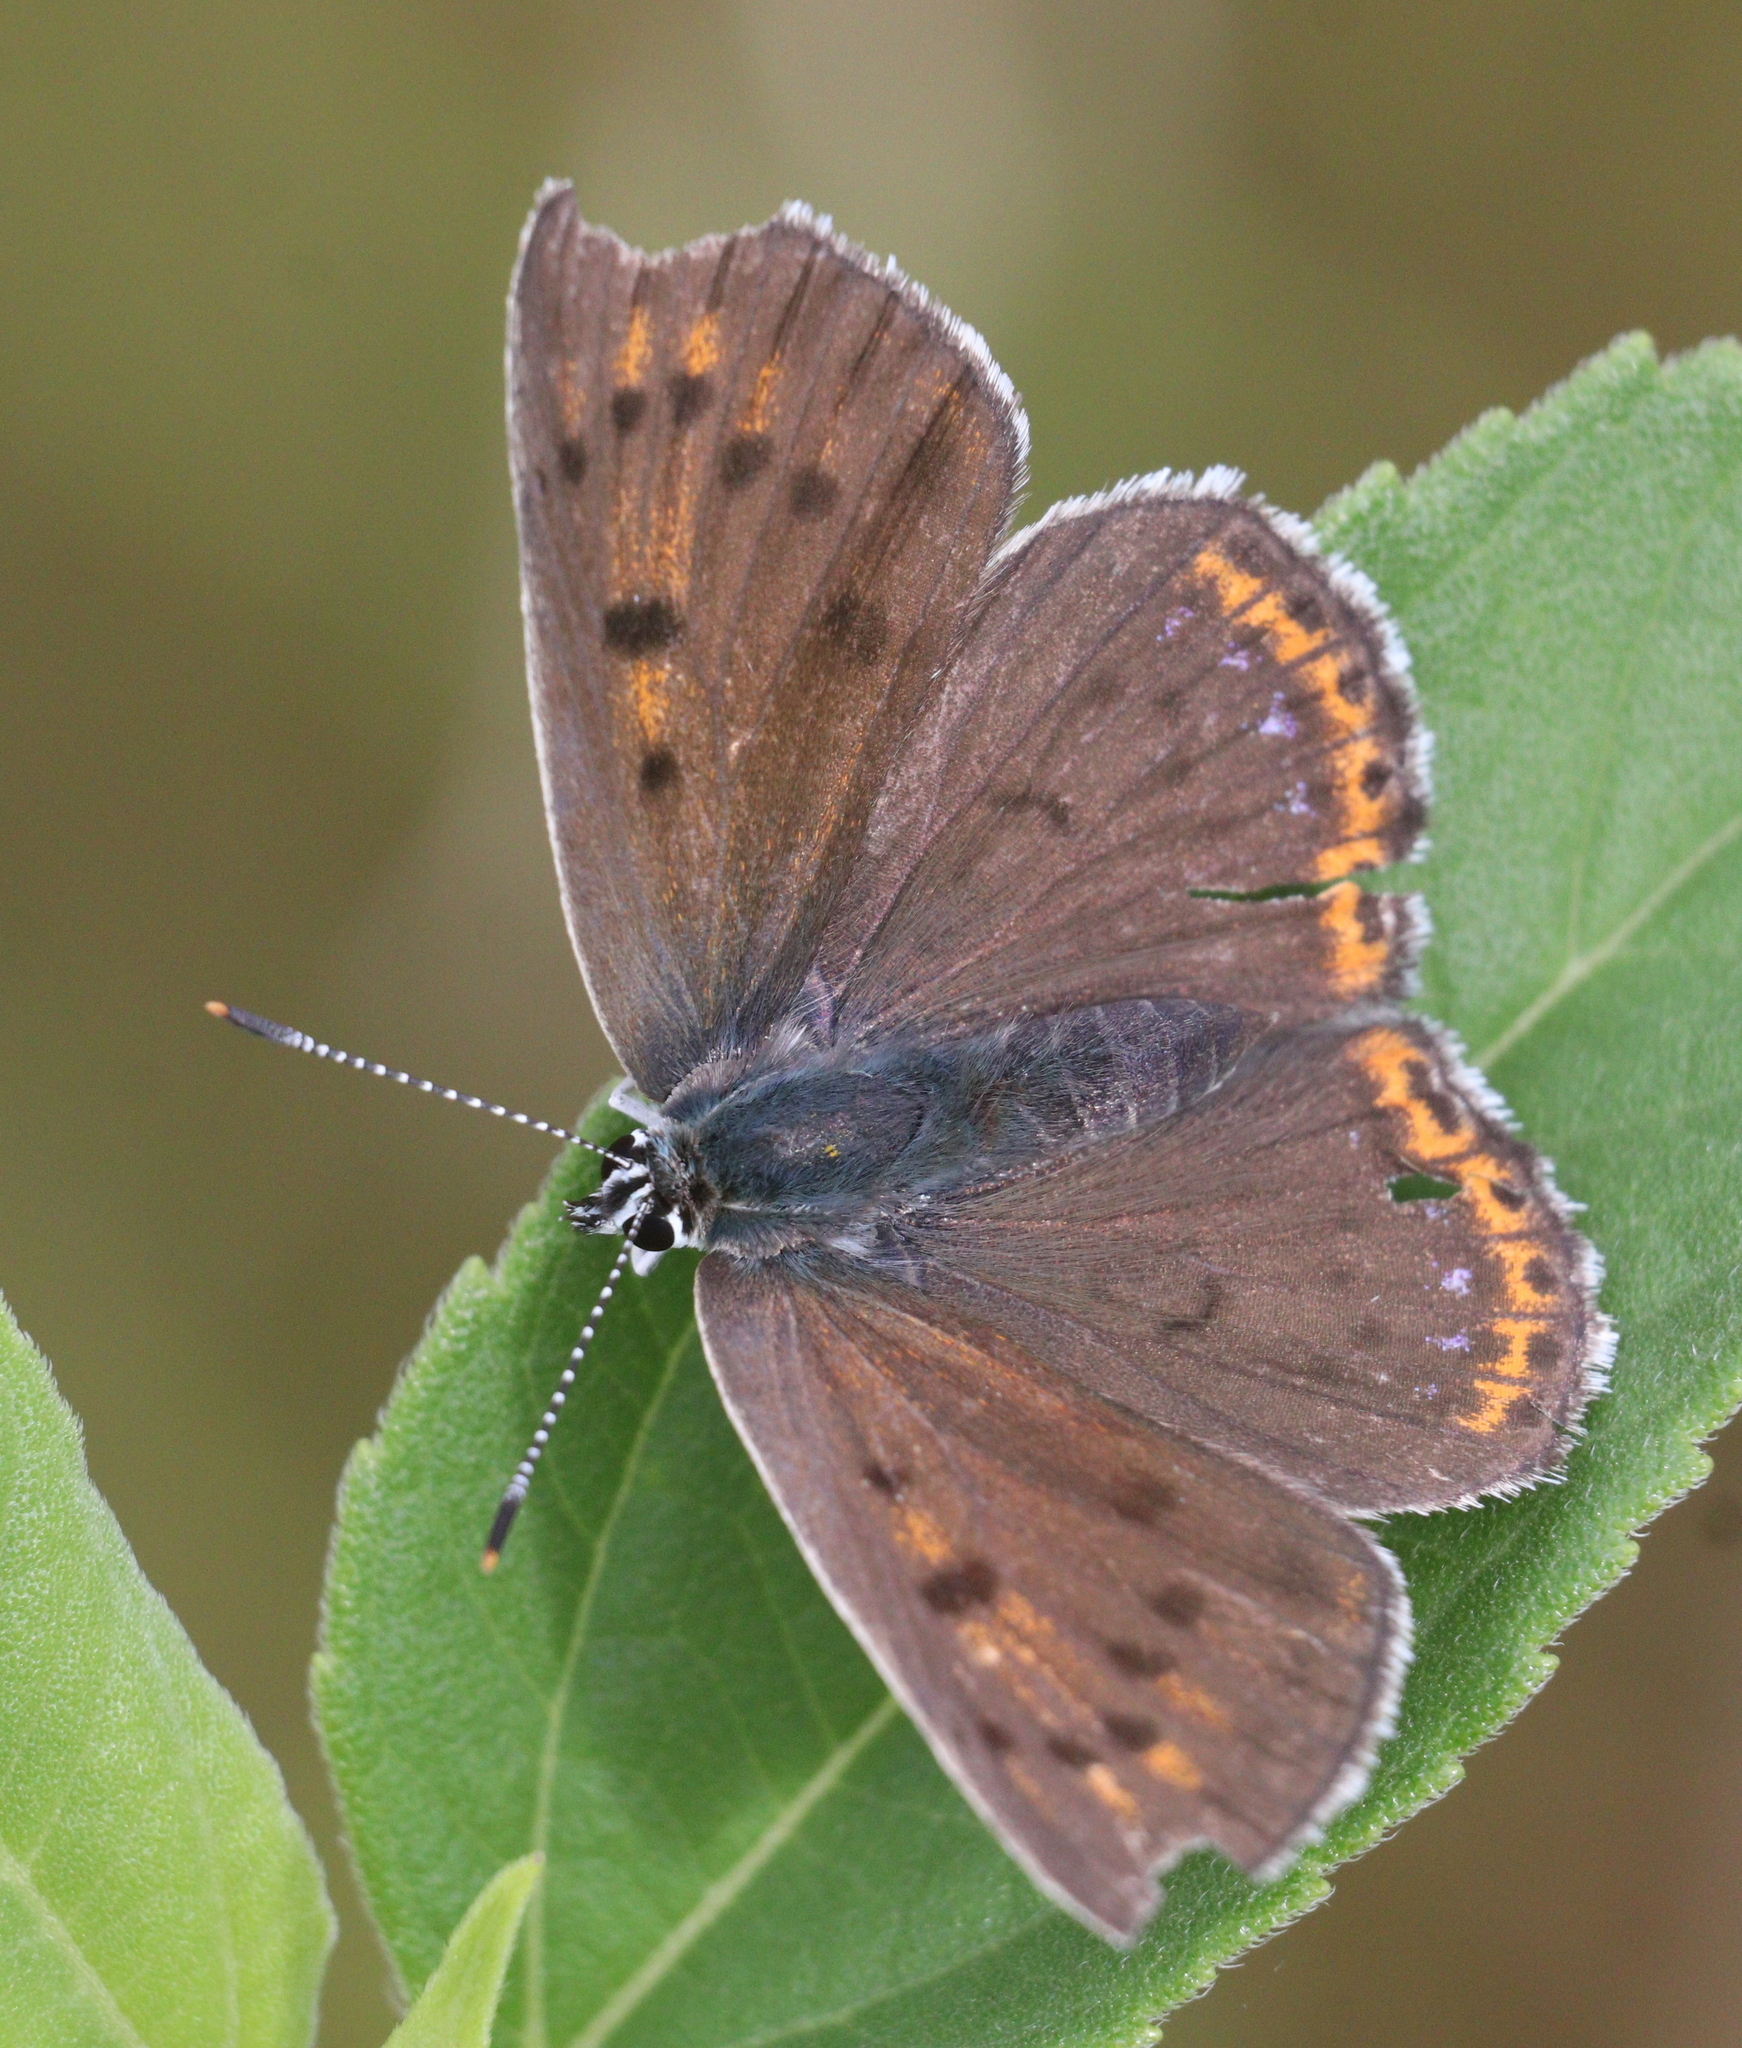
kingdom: Animalia
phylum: Arthropoda
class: Insecta
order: Lepidoptera
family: Lycaenidae
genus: Lycaena
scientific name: Lycaena alciphron
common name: Purple-shot copper
